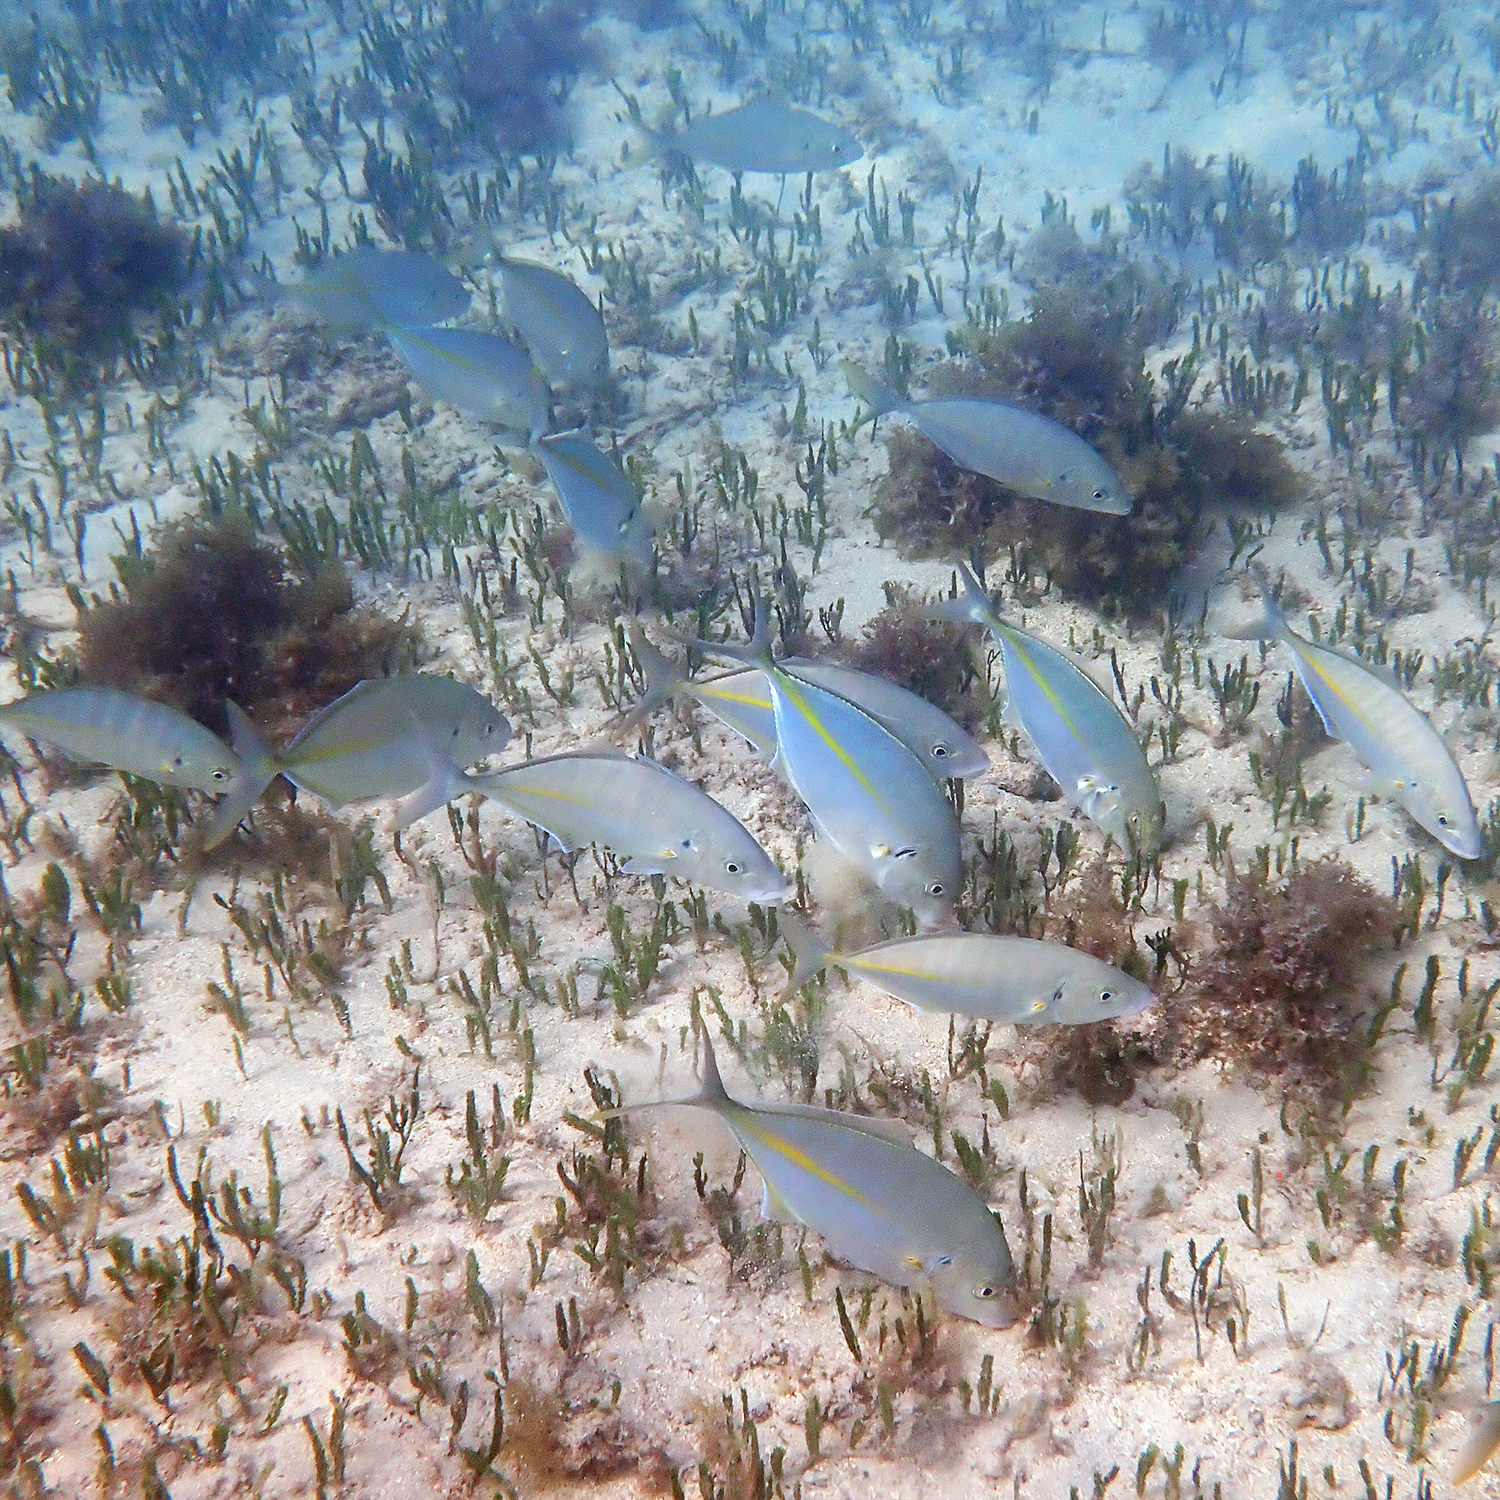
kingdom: Animalia
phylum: Chordata
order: Perciformes
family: Carangidae
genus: Pseudocaranx
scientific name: Pseudocaranx dentex
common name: White trevally
